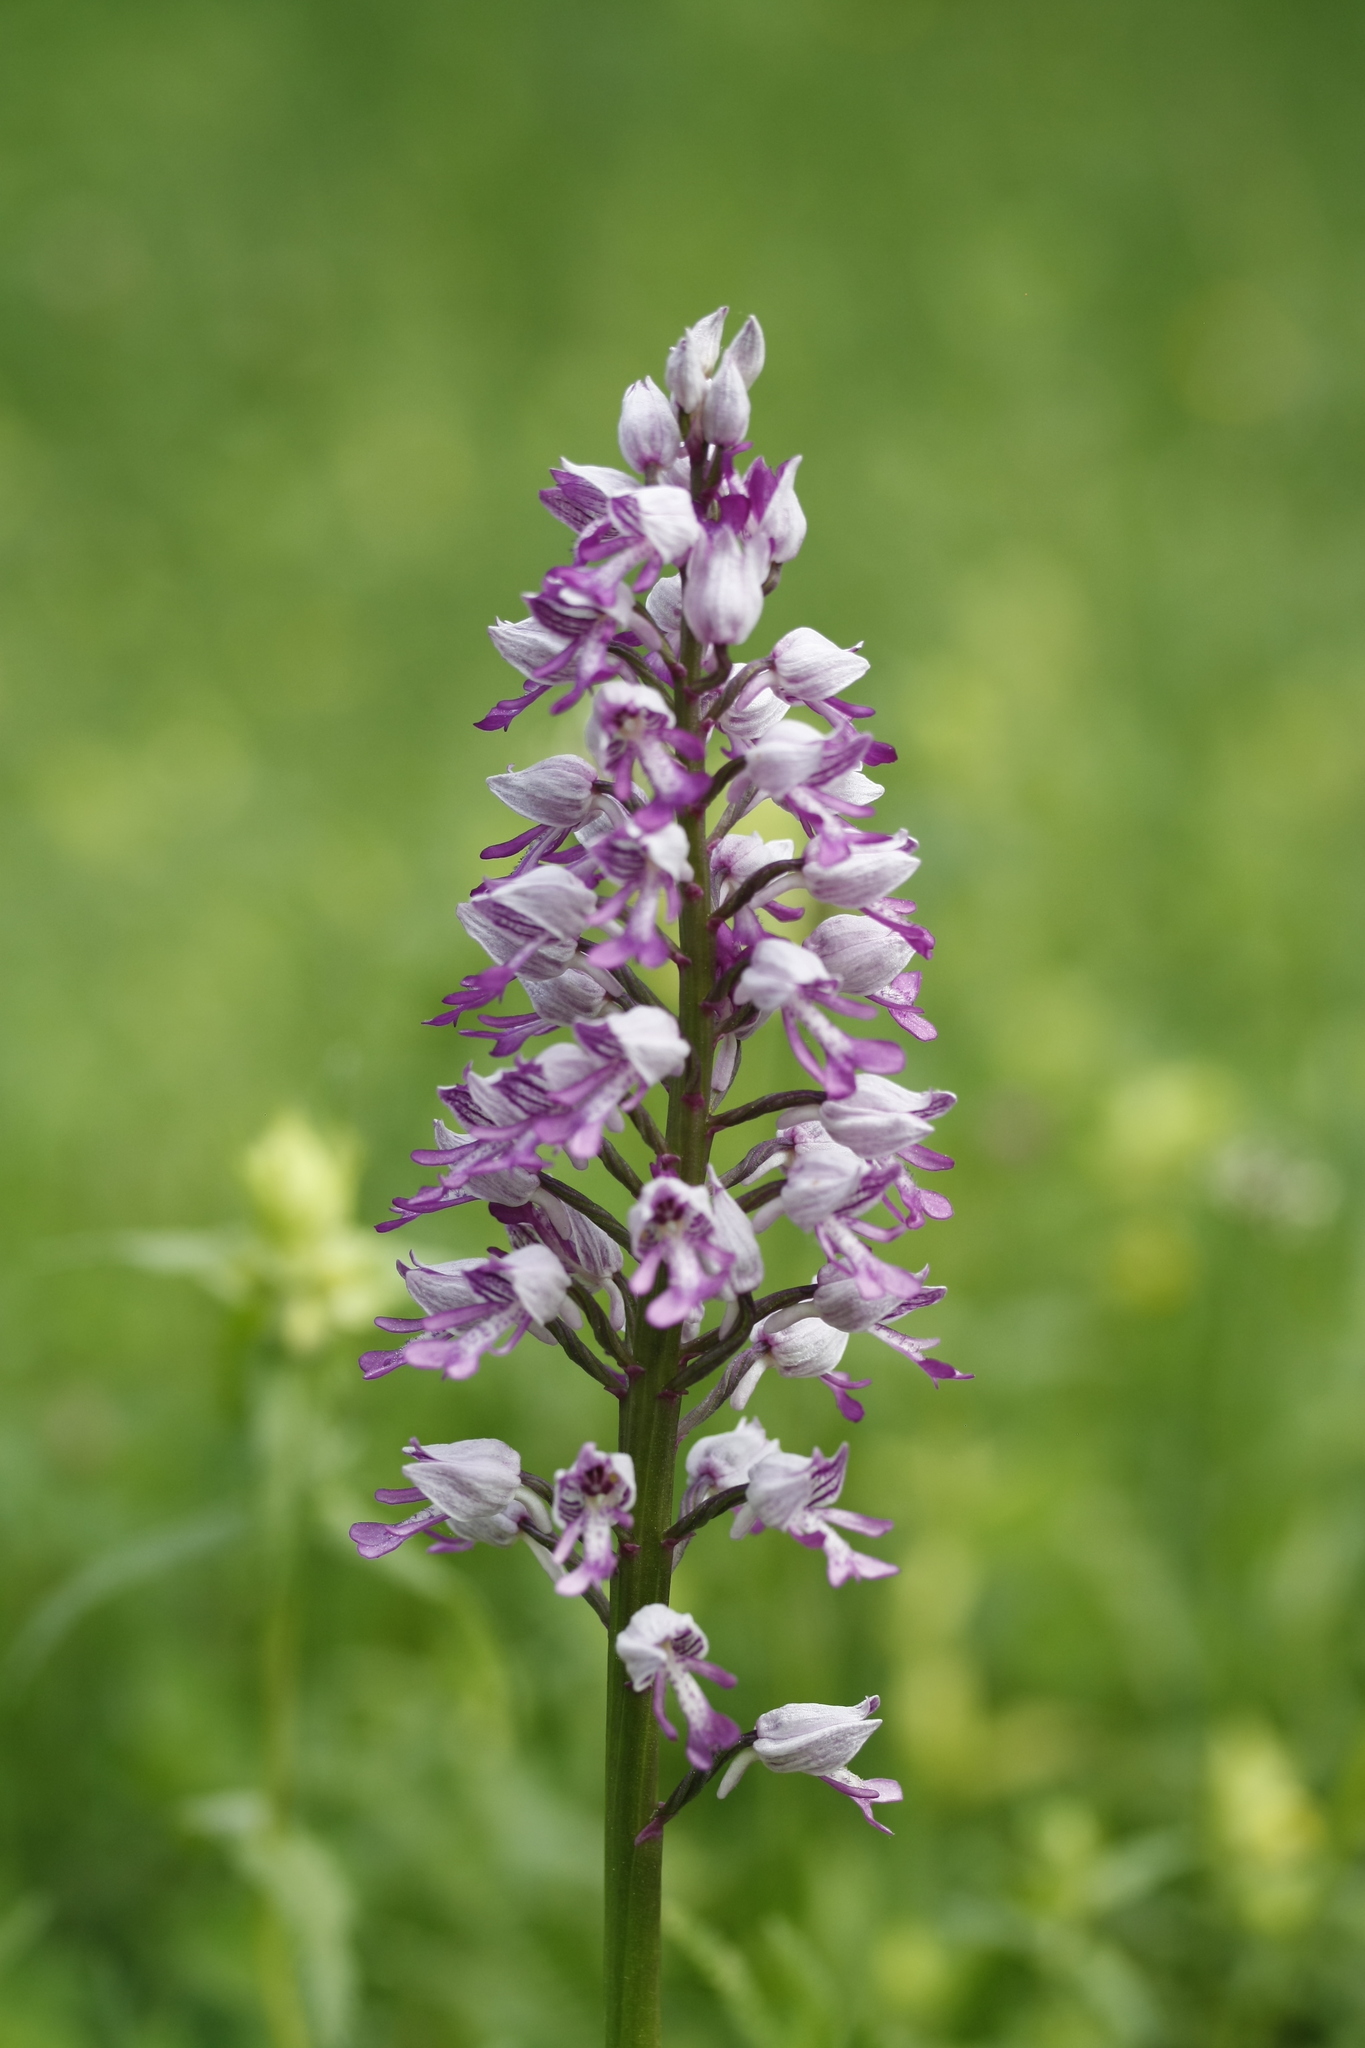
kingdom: Plantae
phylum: Tracheophyta
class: Liliopsida
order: Asparagales
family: Orchidaceae
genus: Orchis
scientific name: Orchis militaris
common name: Military orchid
